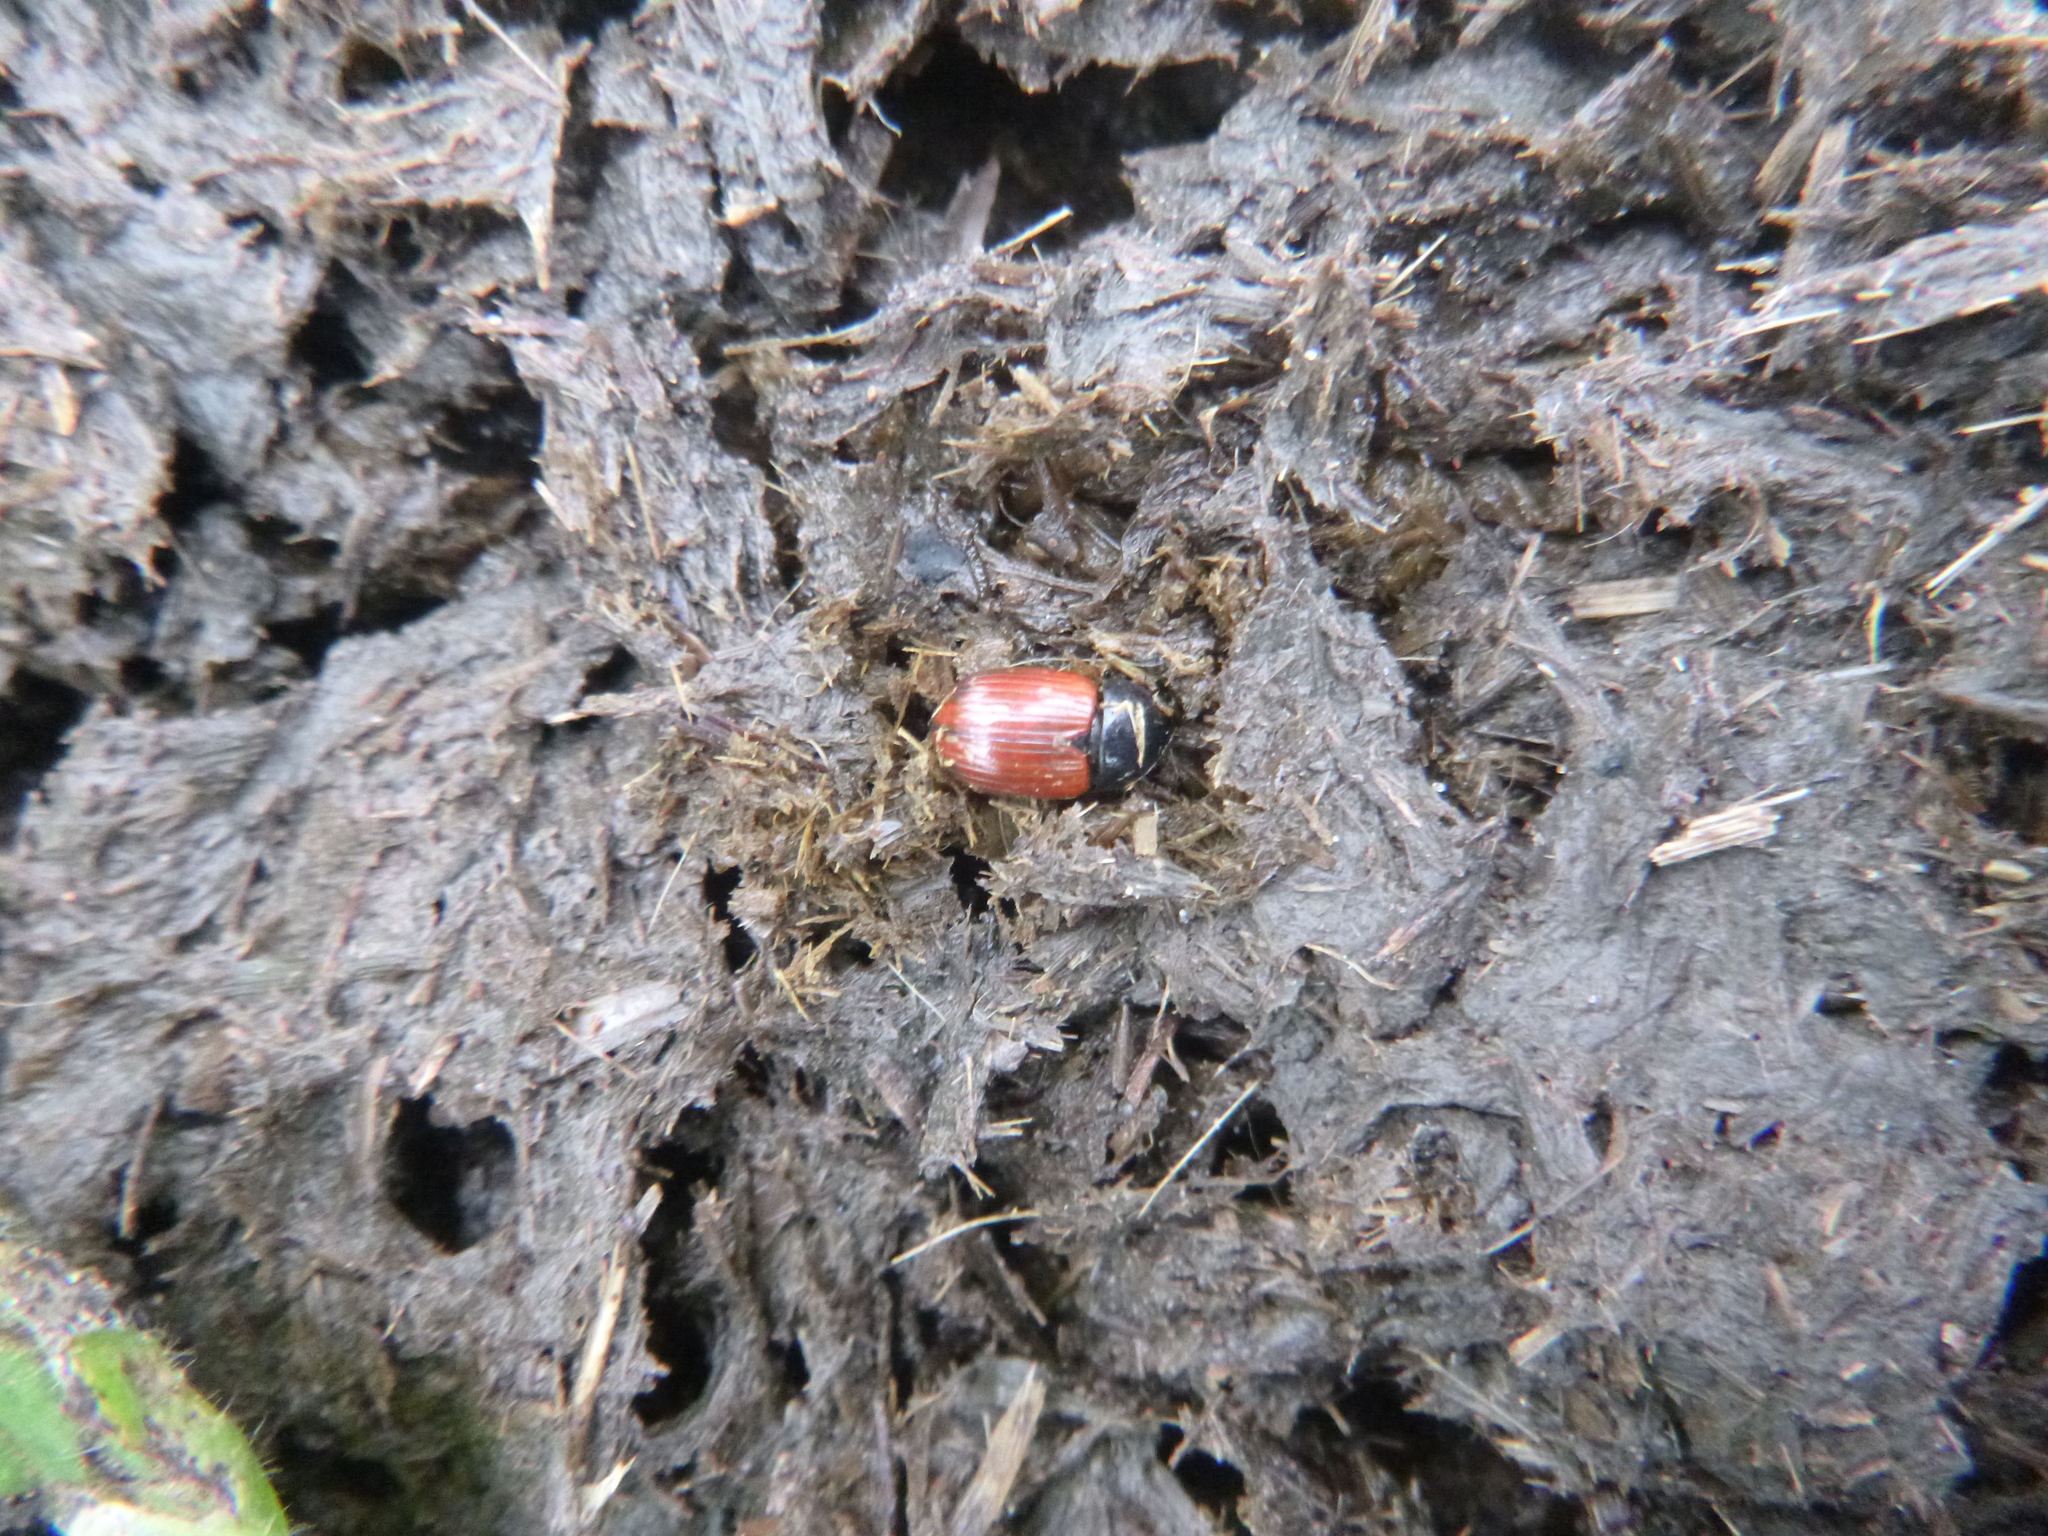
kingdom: Animalia
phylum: Arthropoda
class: Insecta
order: Coleoptera
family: Scarabaeidae
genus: Aphodius
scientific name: Aphodius
